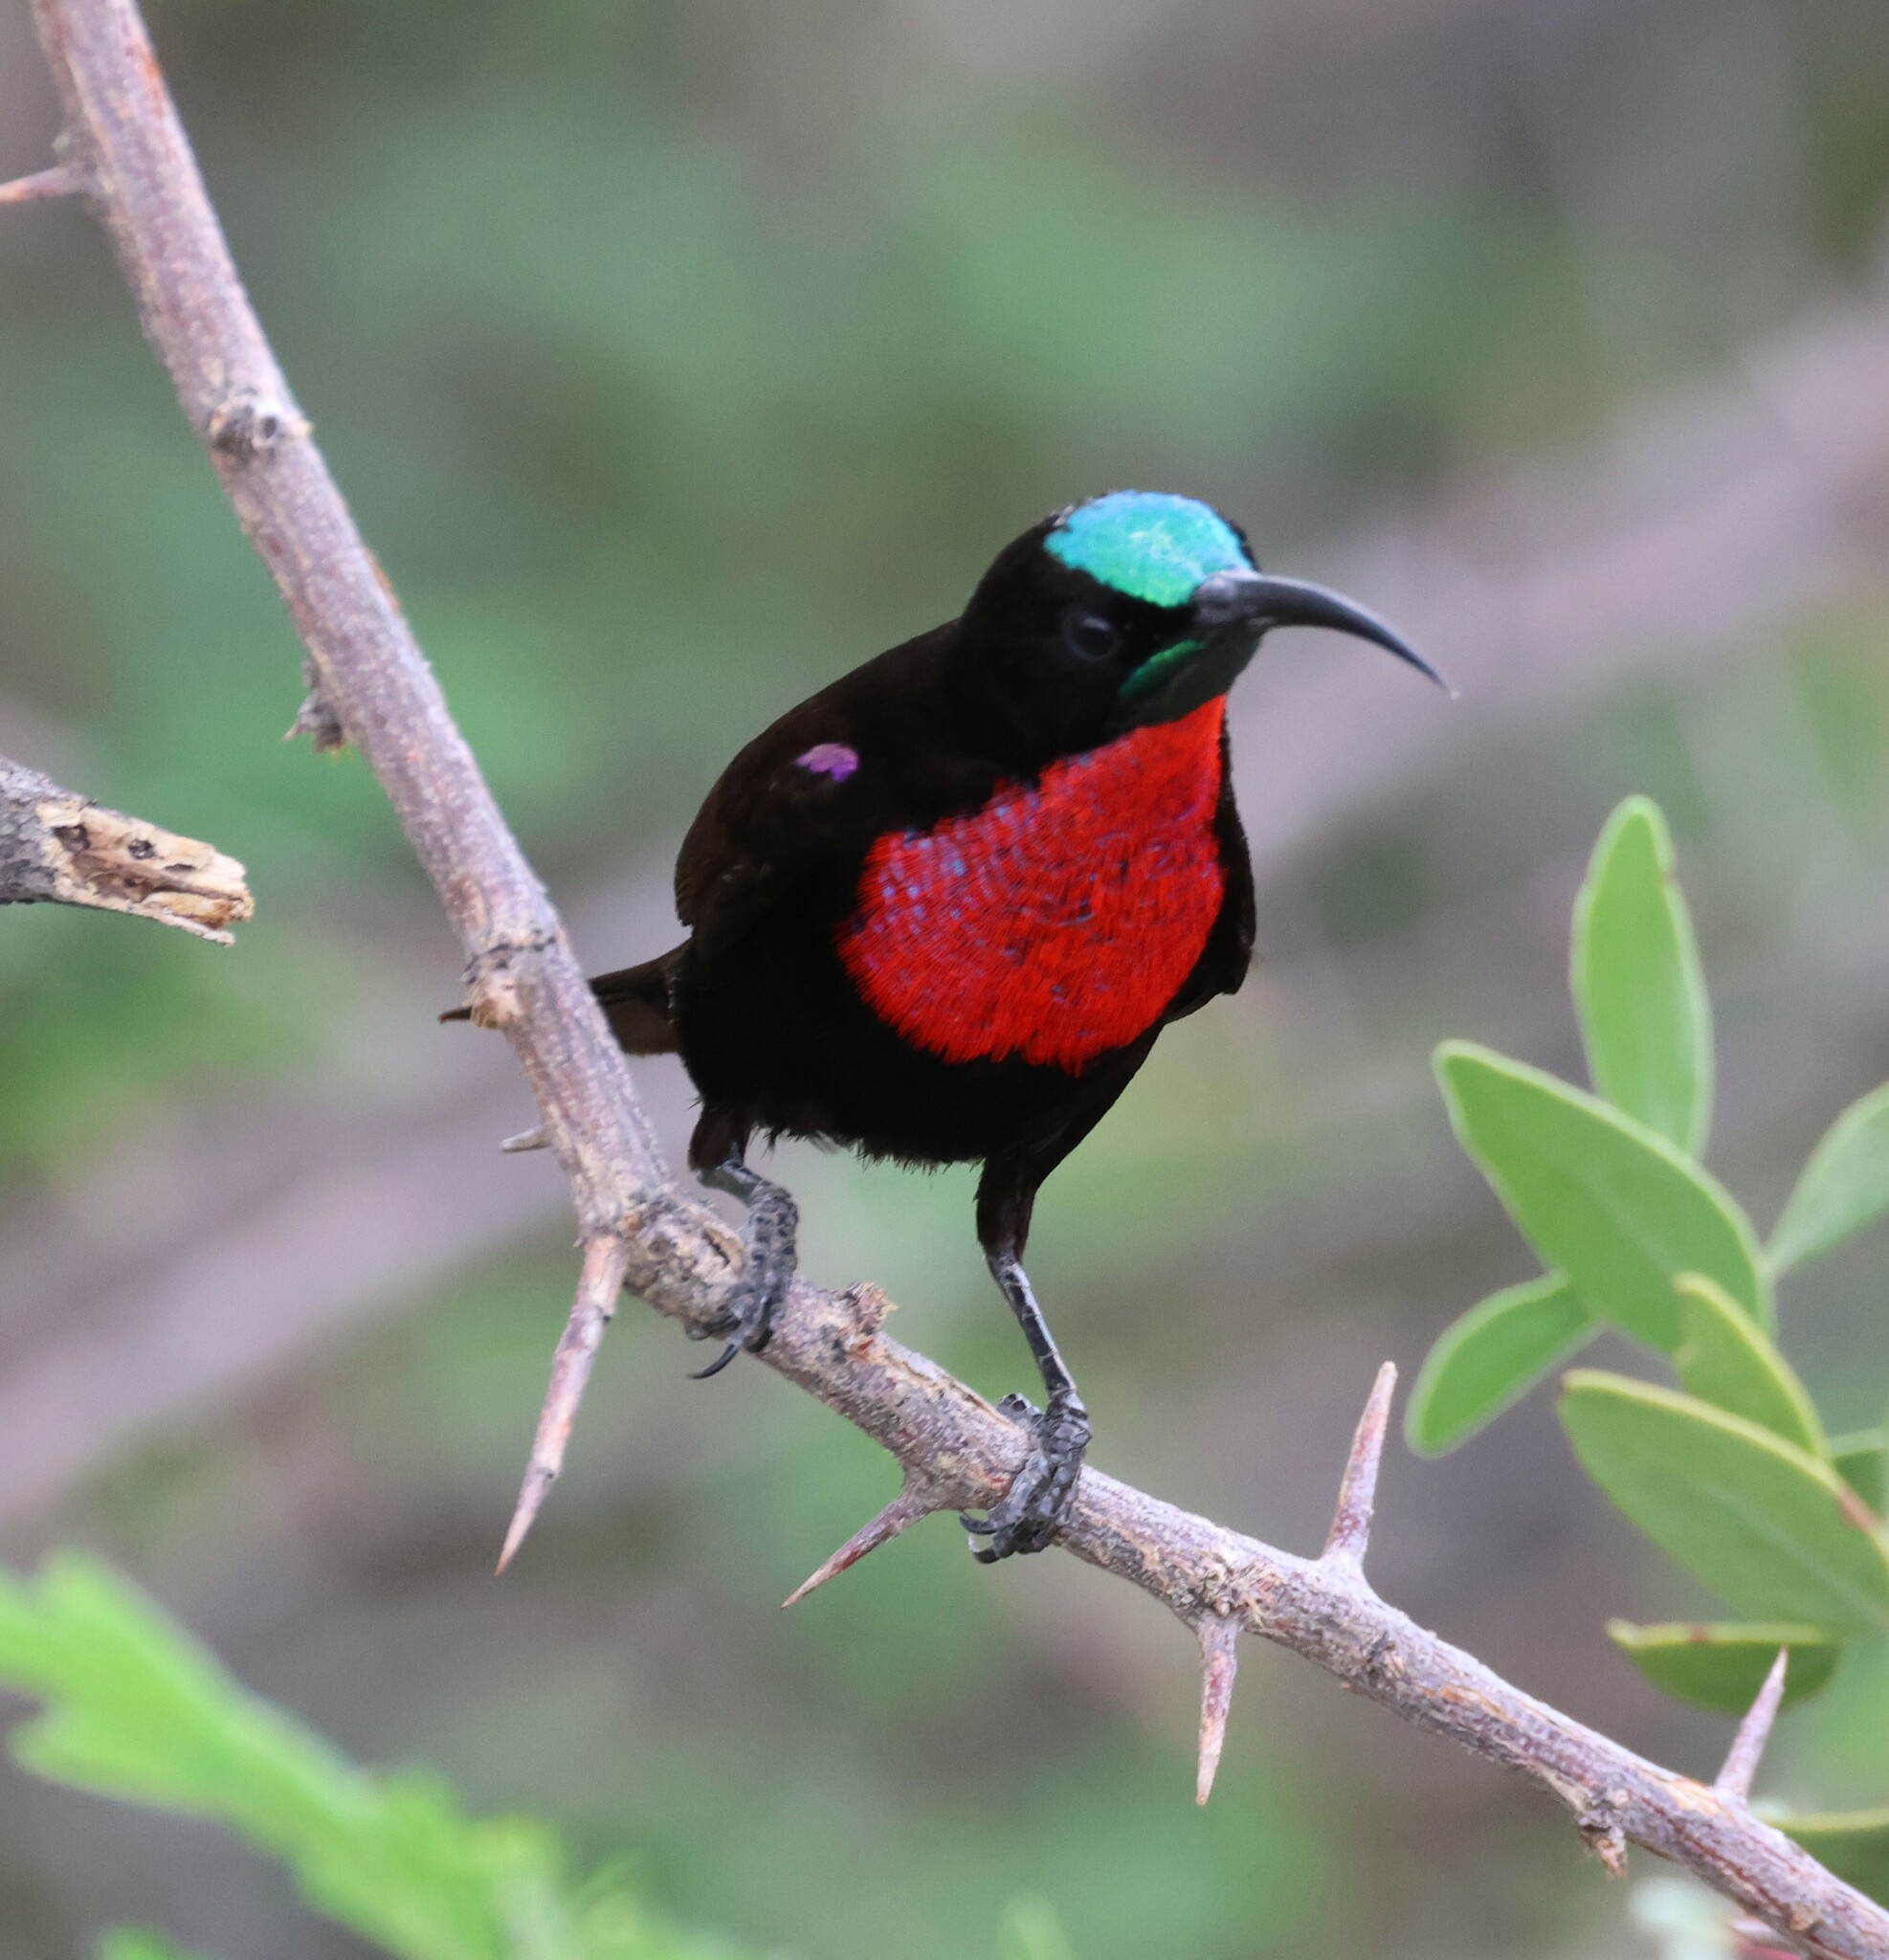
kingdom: Animalia
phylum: Chordata
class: Aves
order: Passeriformes
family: Nectariniidae
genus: Chalcomitra
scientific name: Chalcomitra senegalensis
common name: Scarlet-chested sunbird
